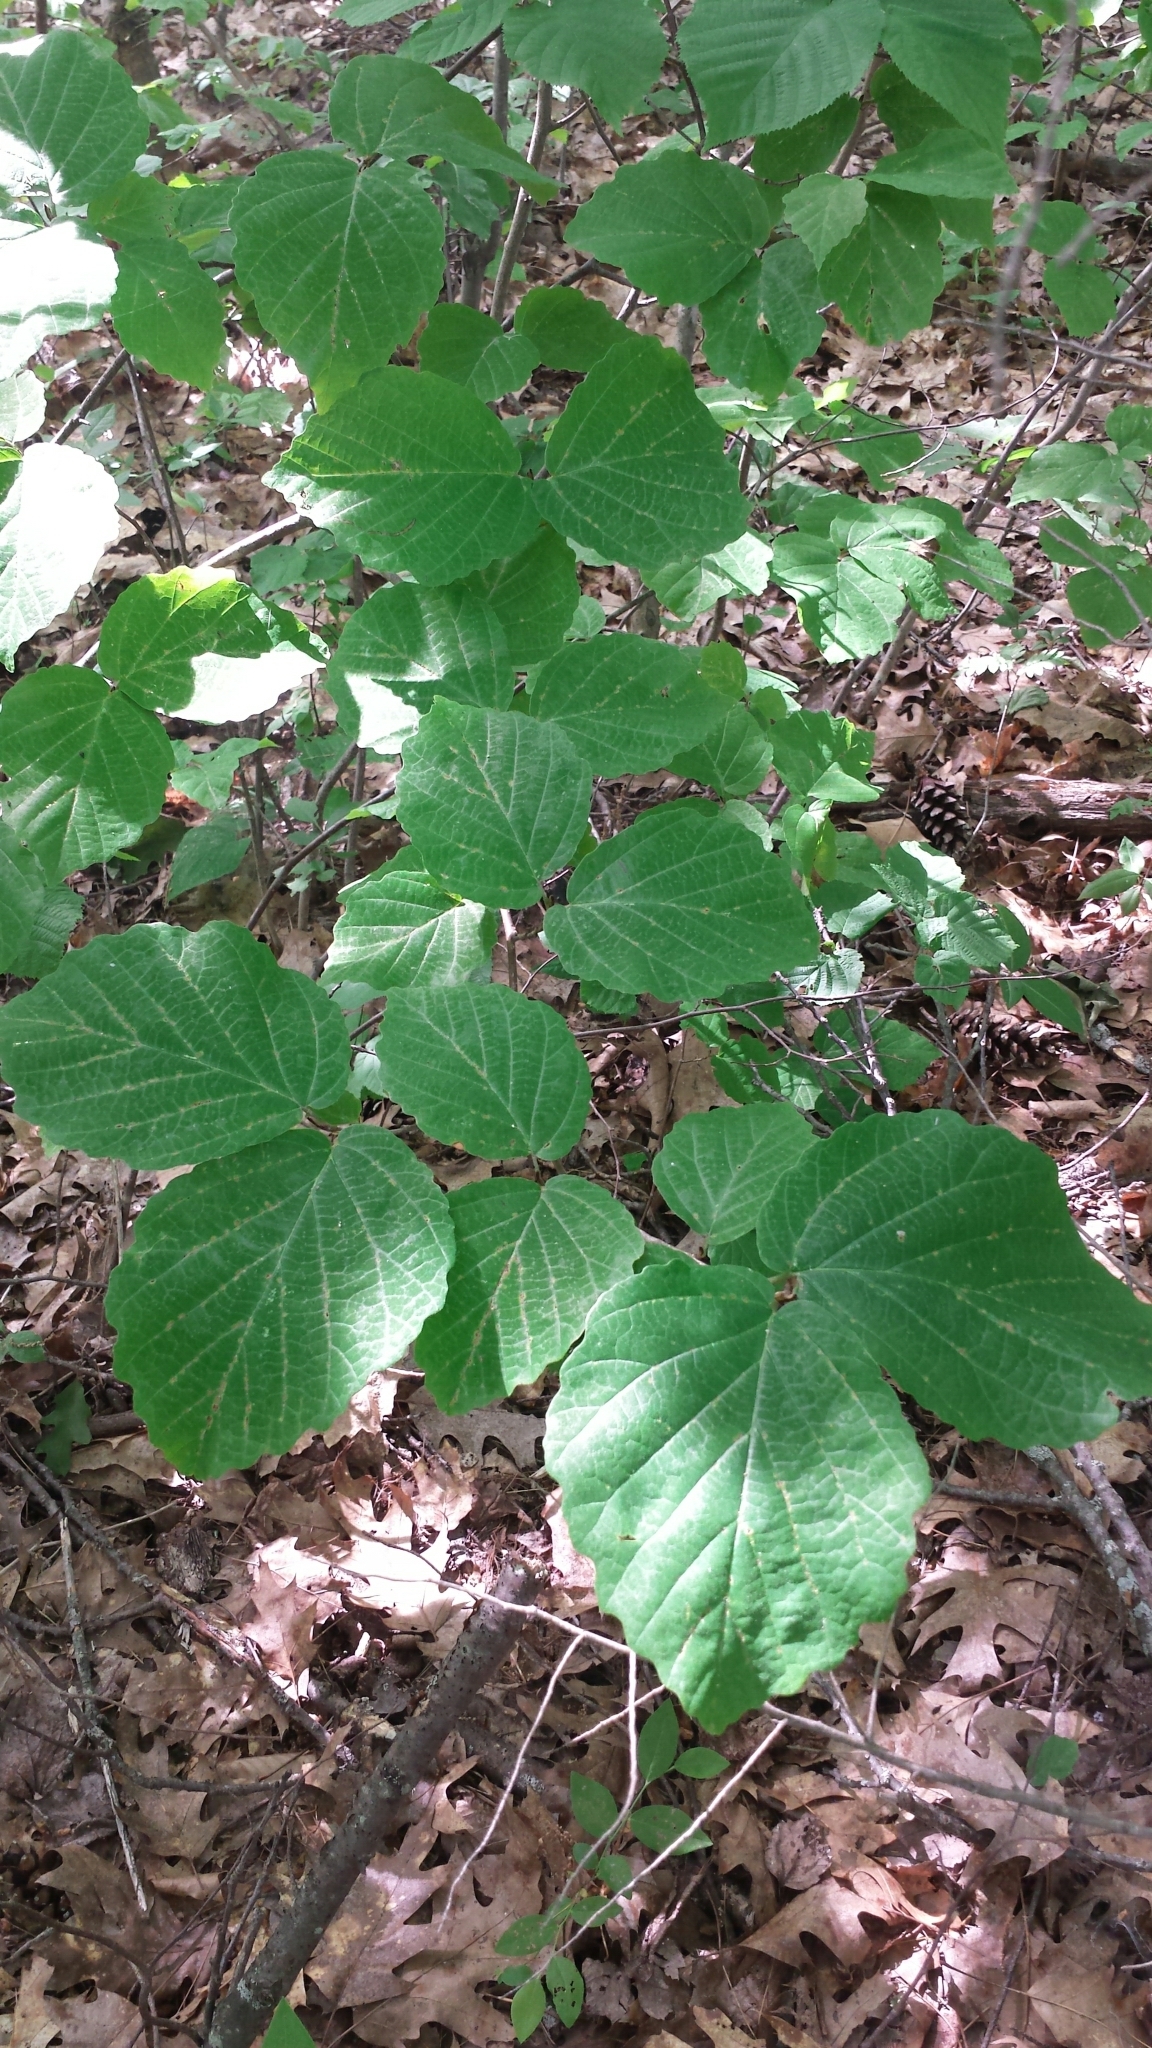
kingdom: Plantae
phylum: Tracheophyta
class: Magnoliopsida
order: Saxifragales
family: Hamamelidaceae
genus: Hamamelis
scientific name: Hamamelis virginiana
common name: Witch-hazel
